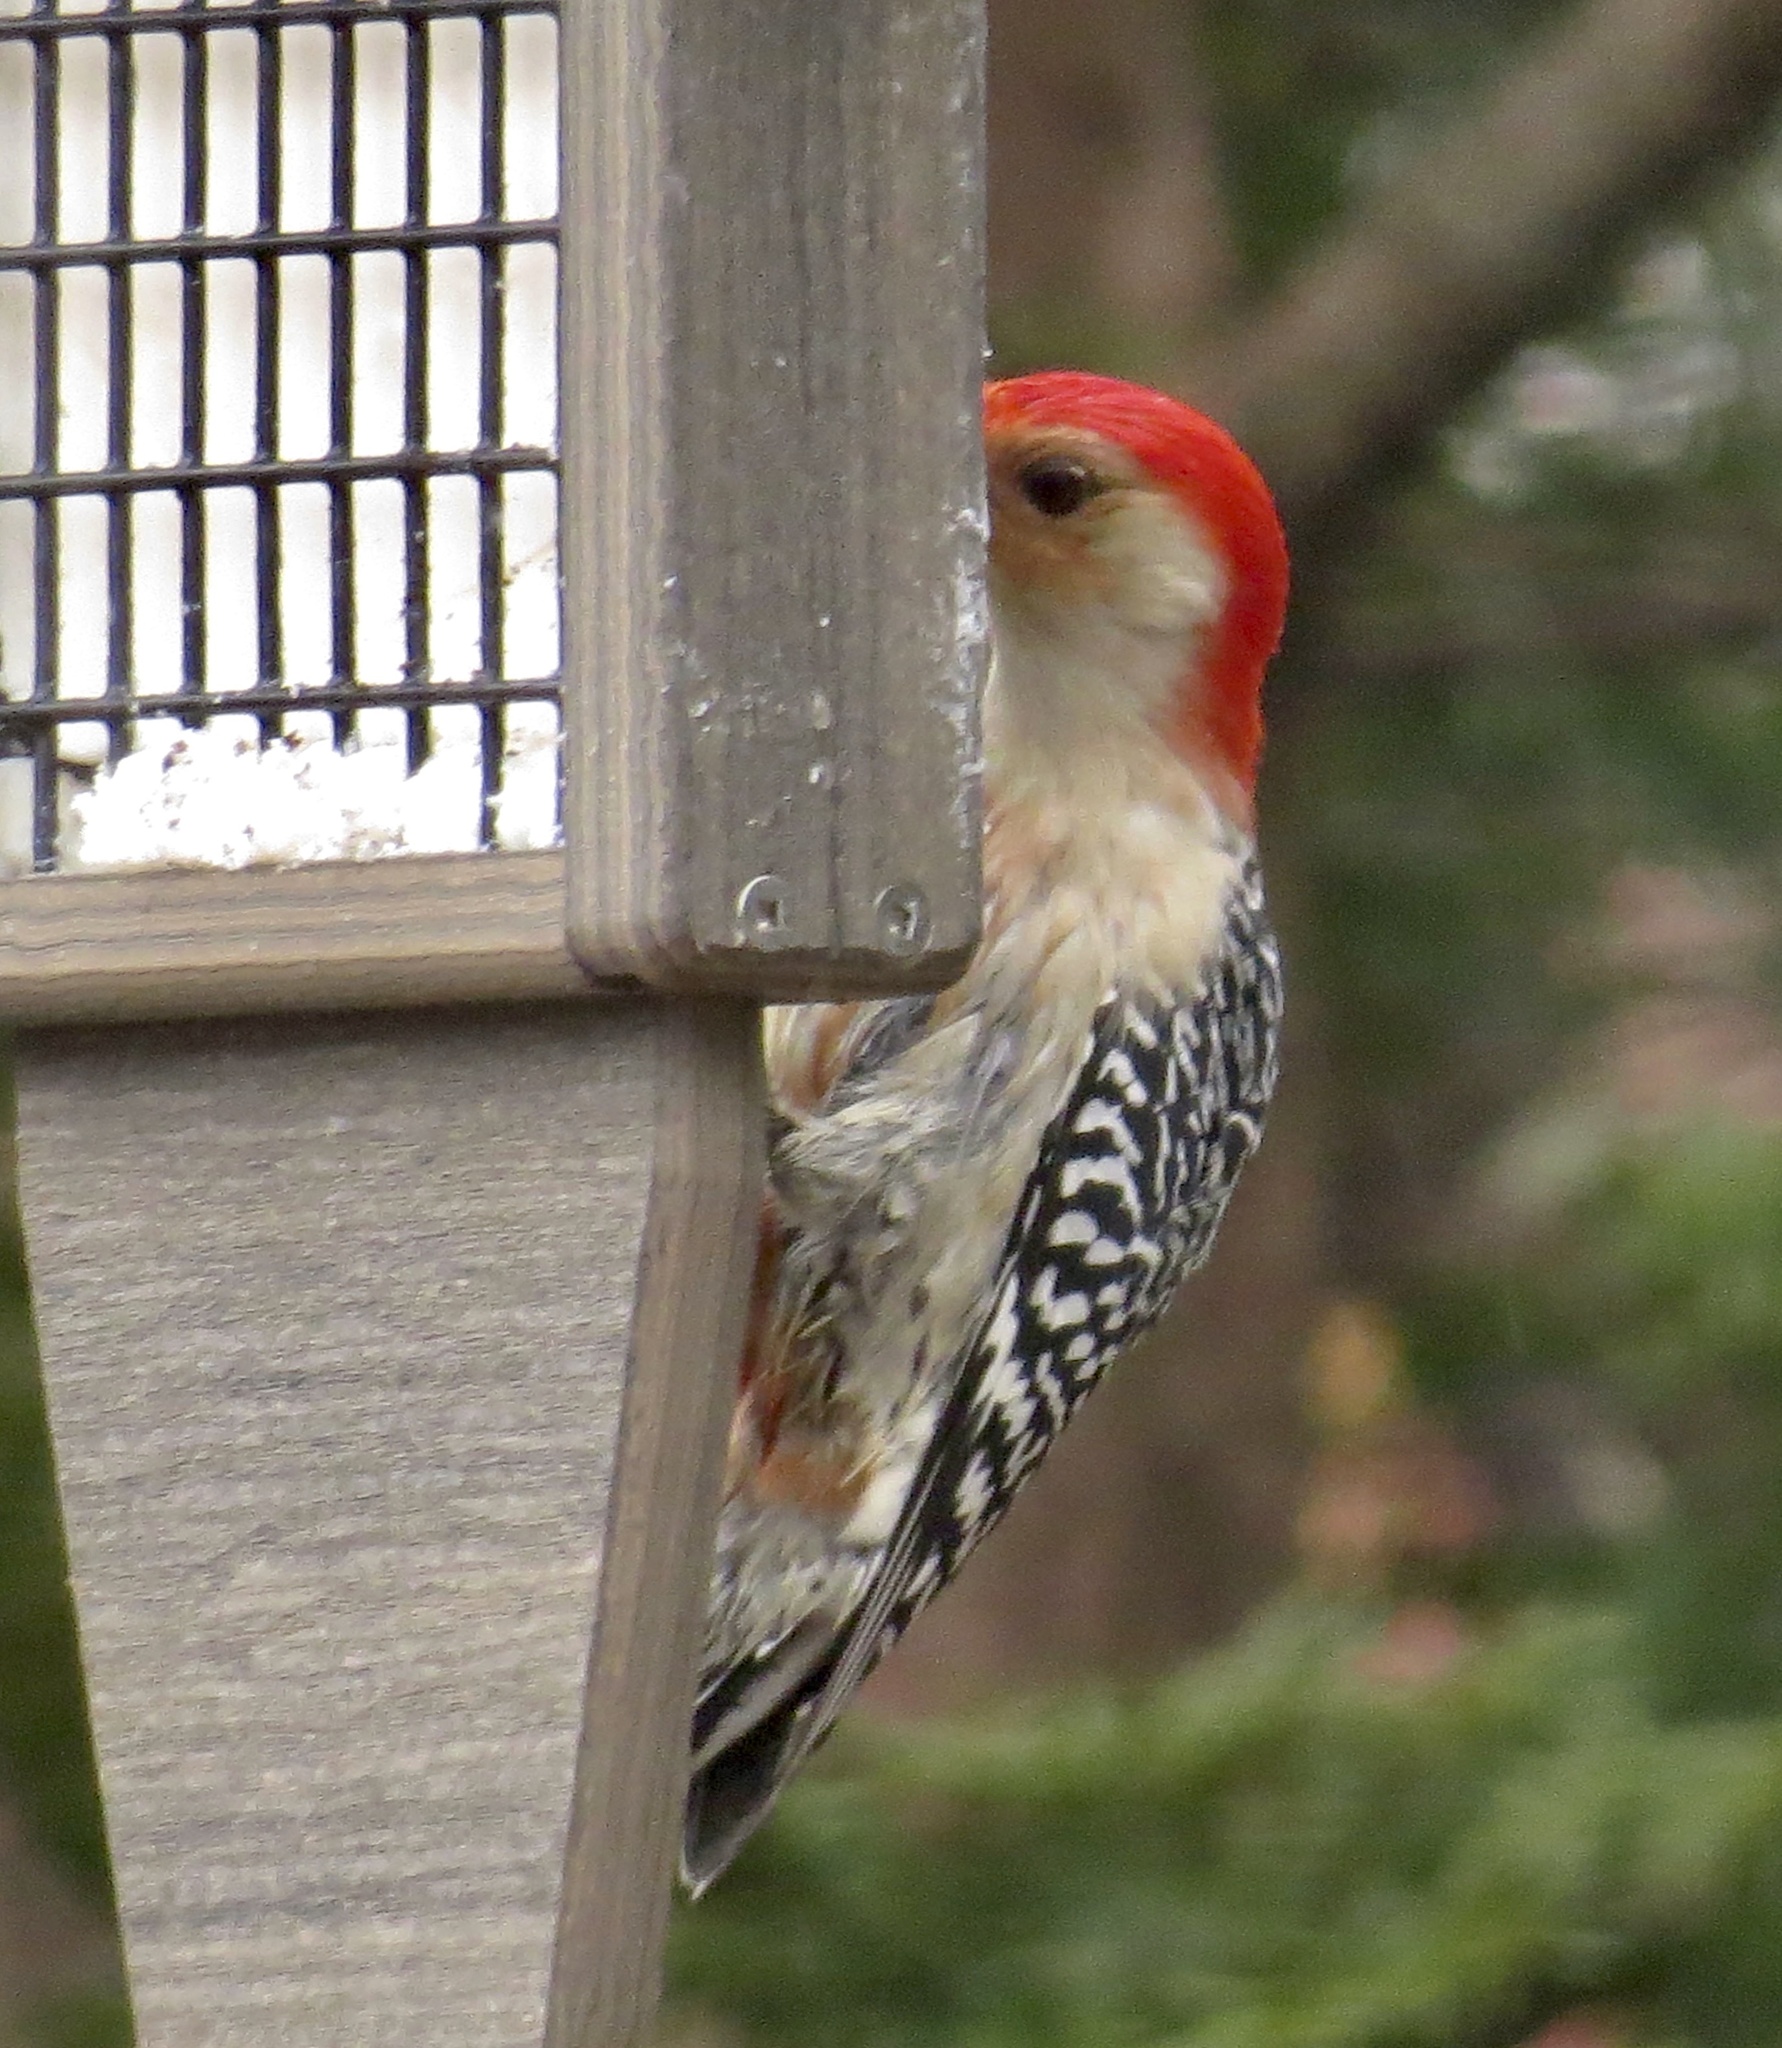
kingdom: Animalia
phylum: Chordata
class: Aves
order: Piciformes
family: Picidae
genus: Melanerpes
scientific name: Melanerpes carolinus
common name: Red-bellied woodpecker
